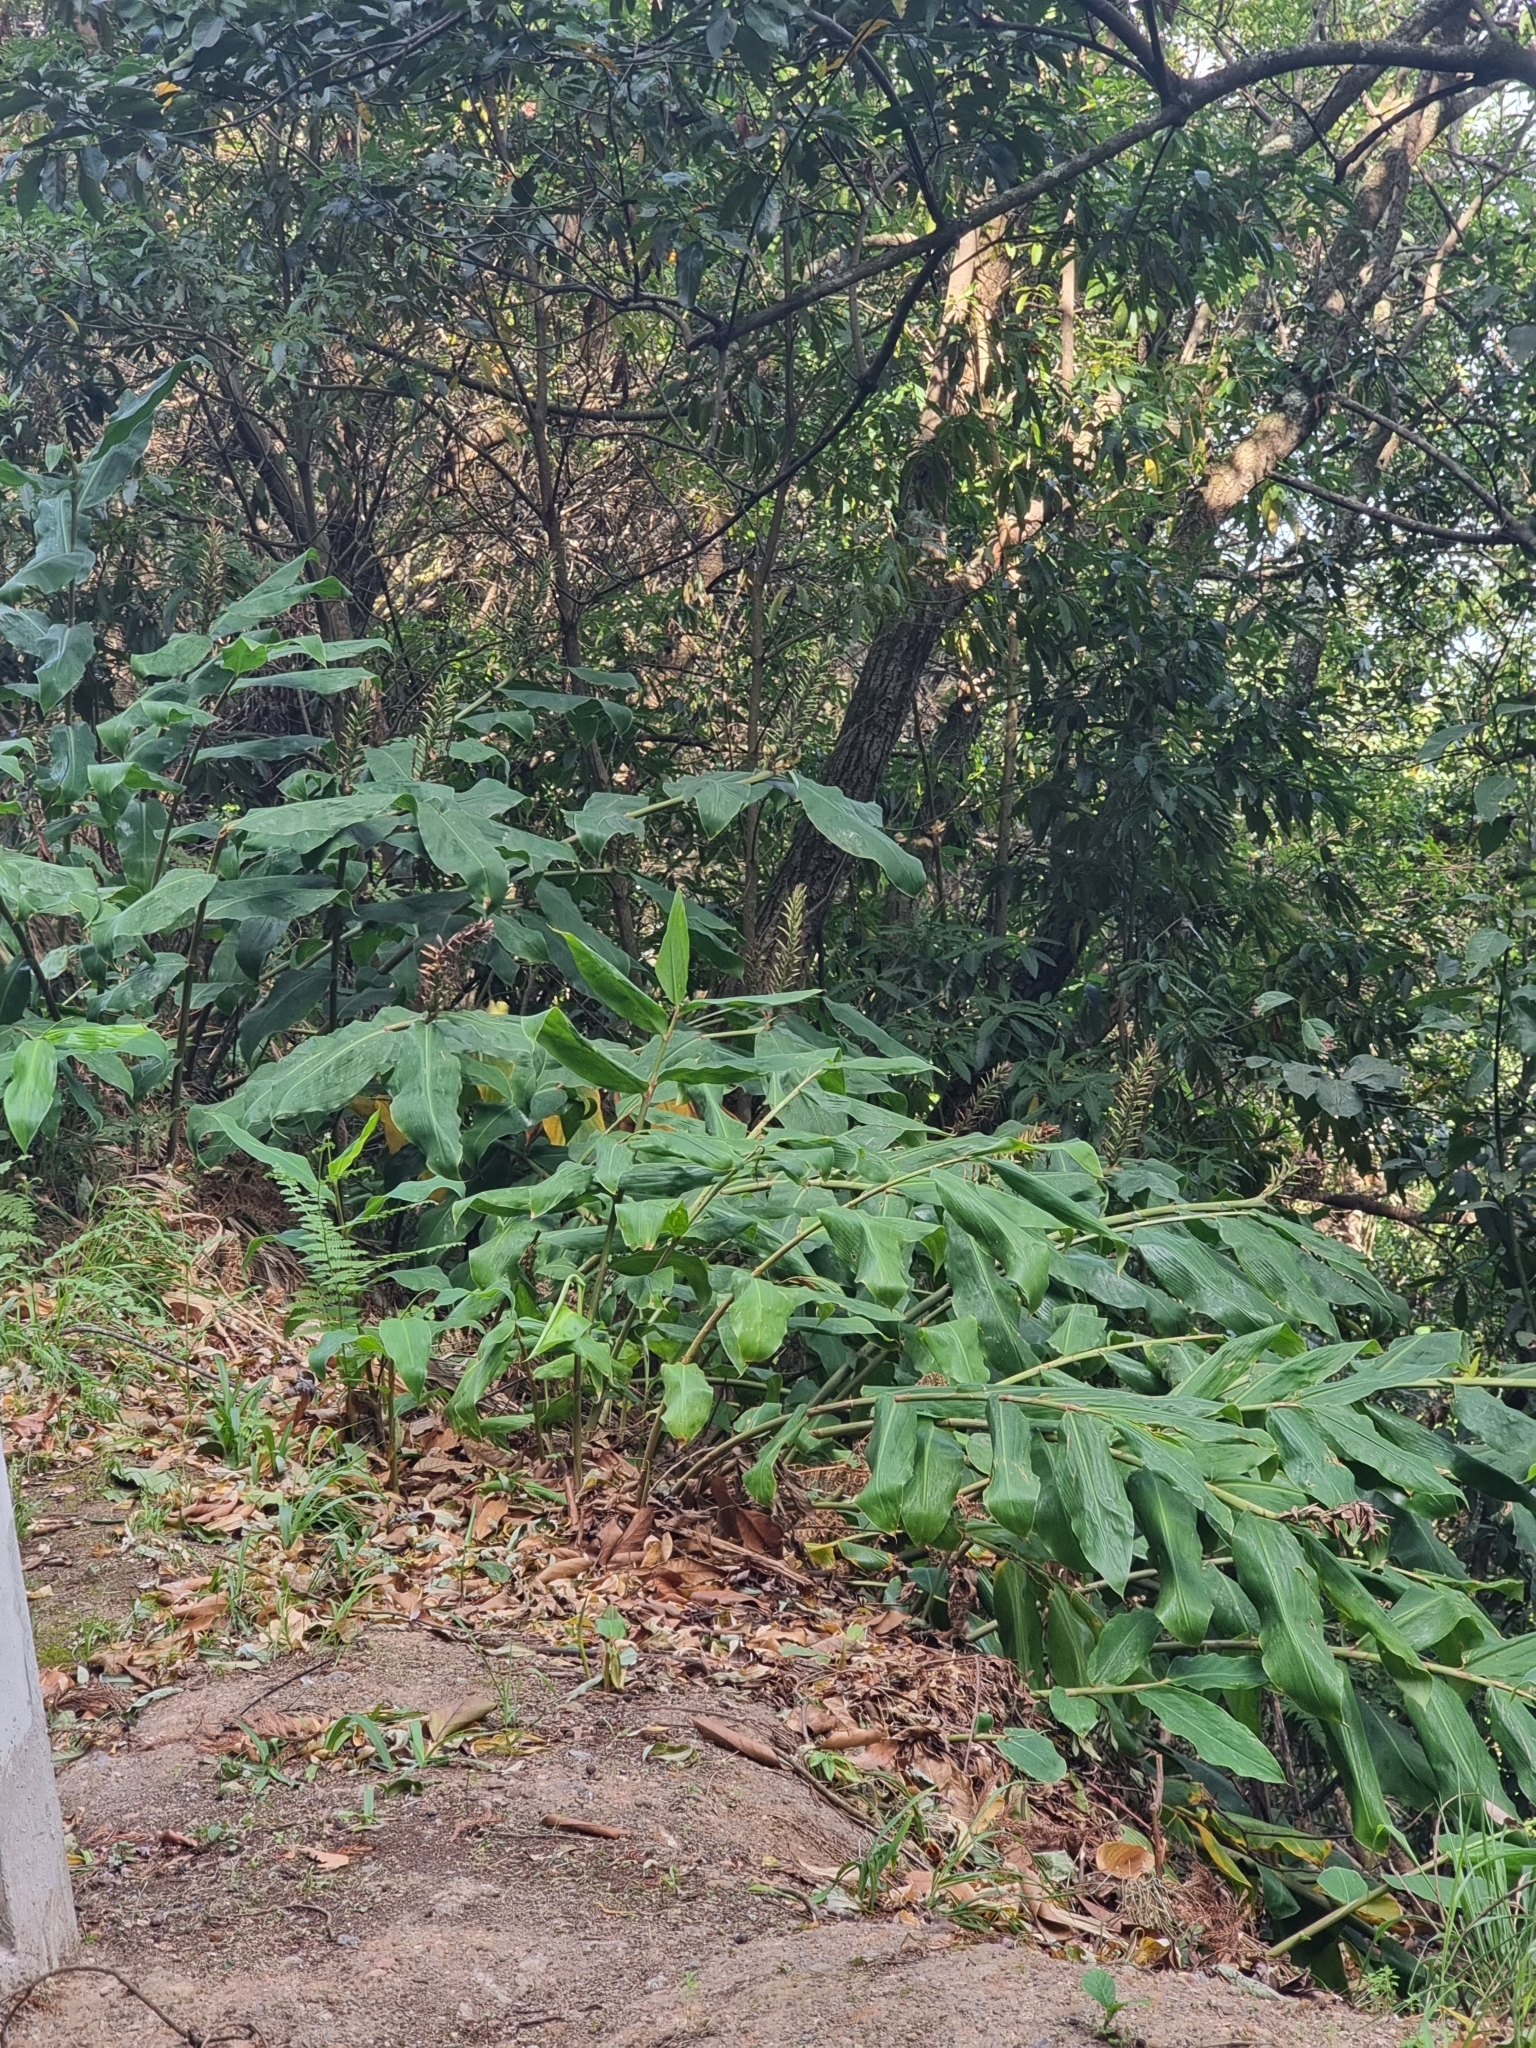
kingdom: Plantae
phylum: Tracheophyta
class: Liliopsida
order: Zingiberales
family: Zingiberaceae
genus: Hedychium
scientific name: Hedychium gardnerianum
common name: Himalayan ginger
